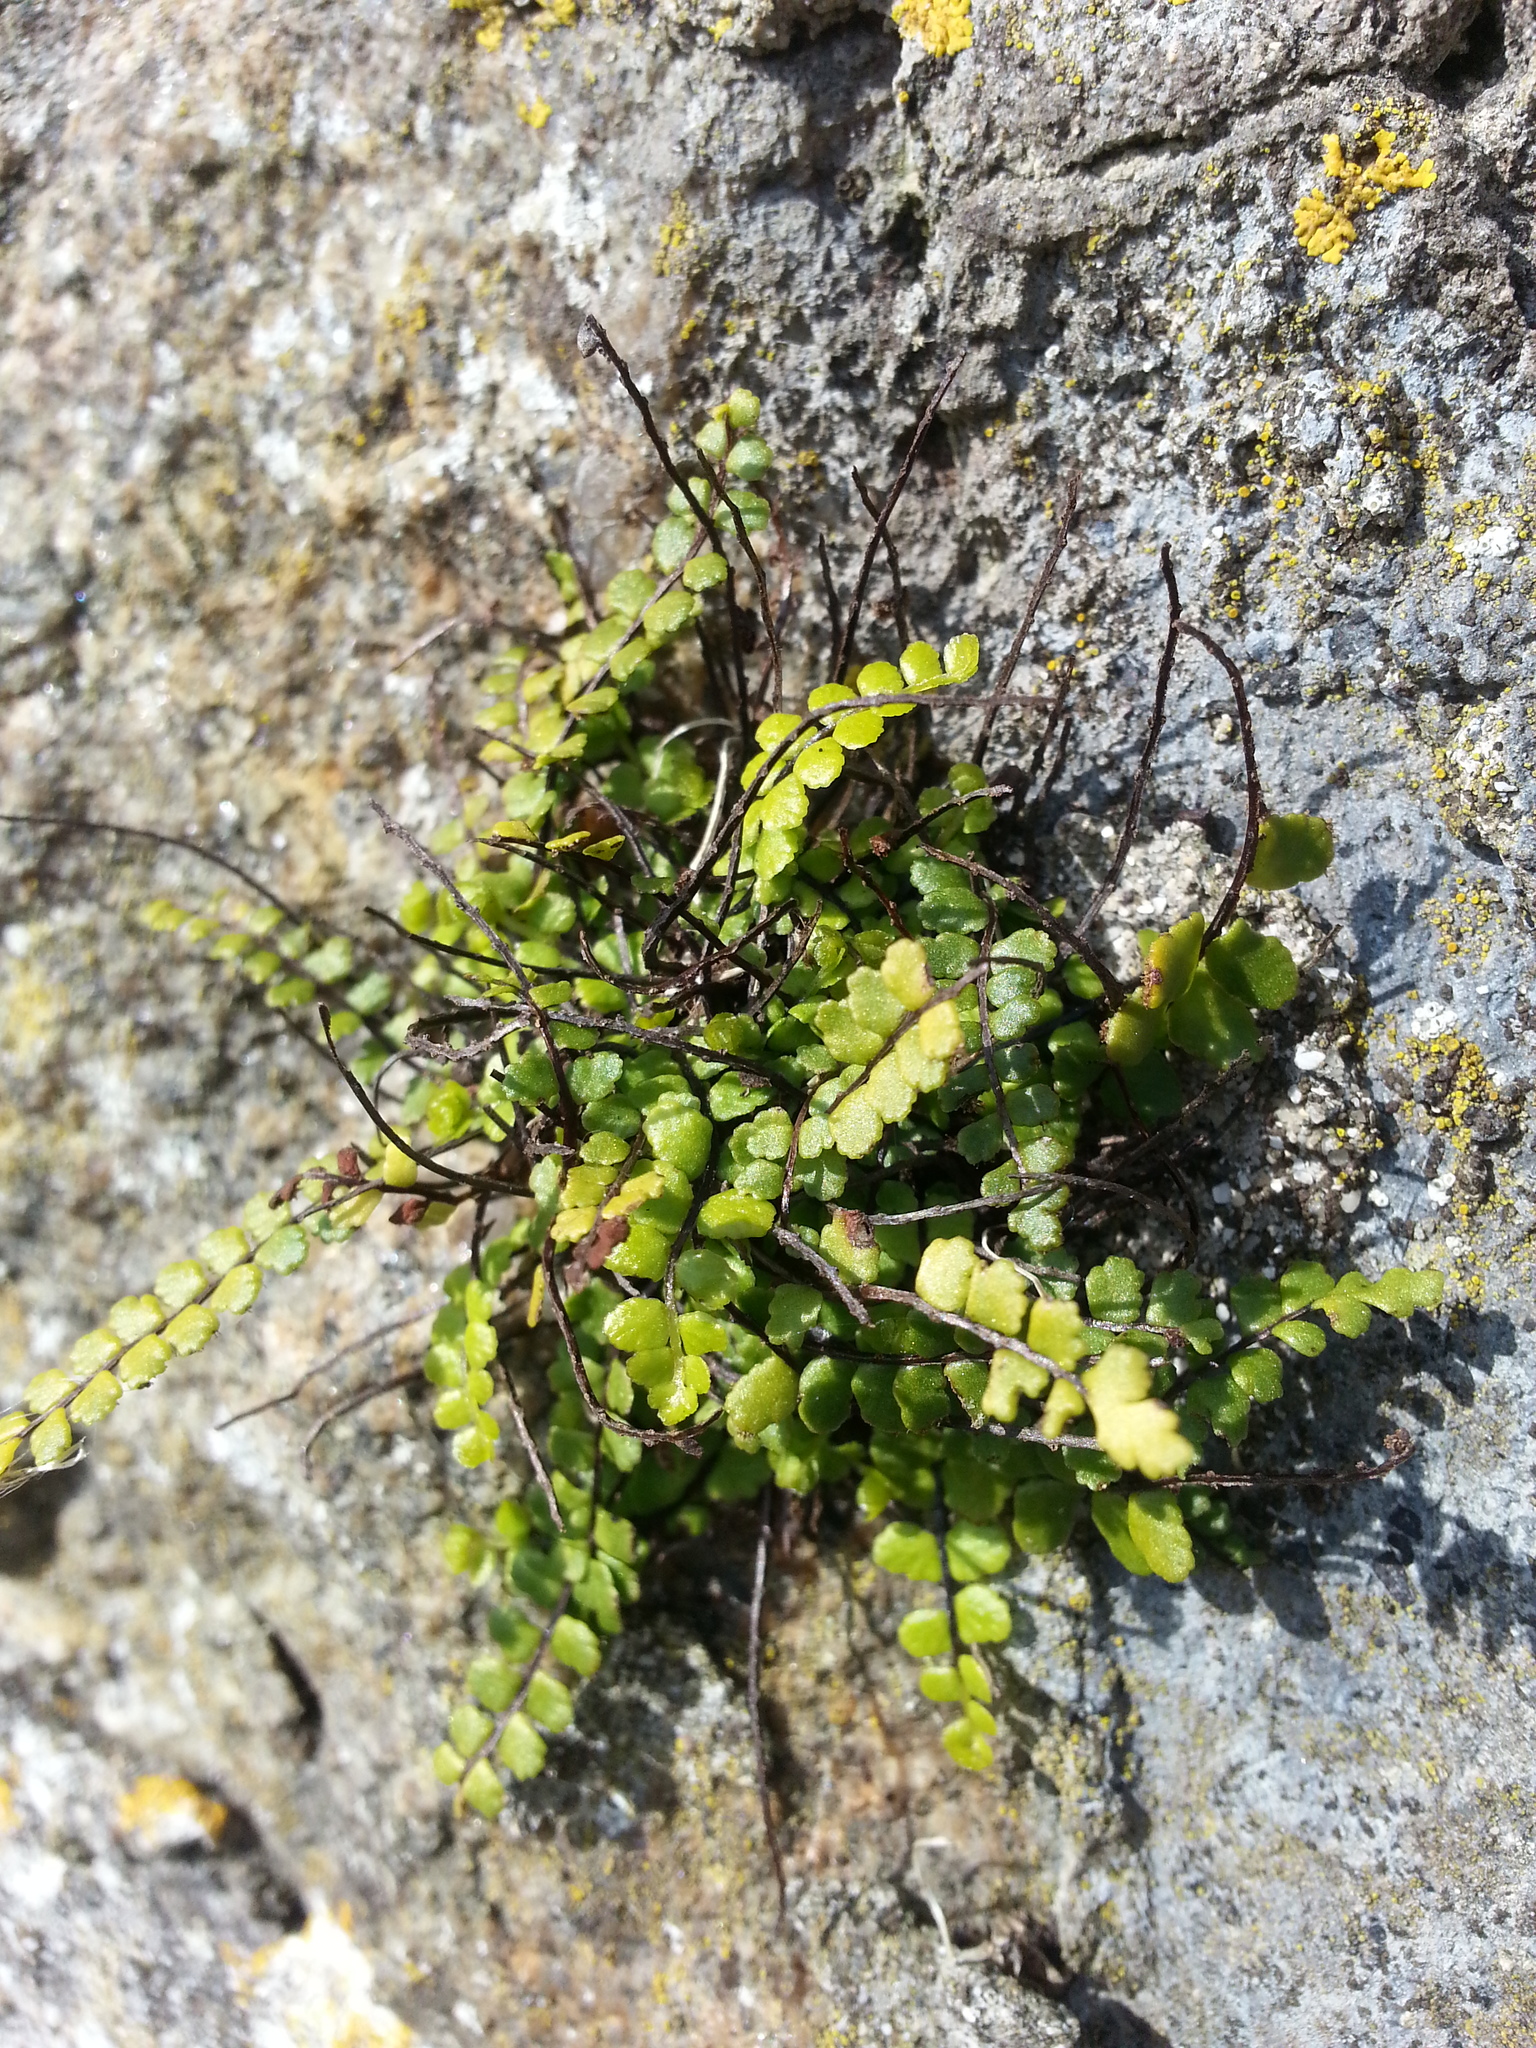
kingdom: Plantae
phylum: Tracheophyta
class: Polypodiopsida
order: Polypodiales
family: Aspleniaceae
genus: Asplenium
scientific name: Asplenium trichomanes
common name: Maidenhair spleenwort
